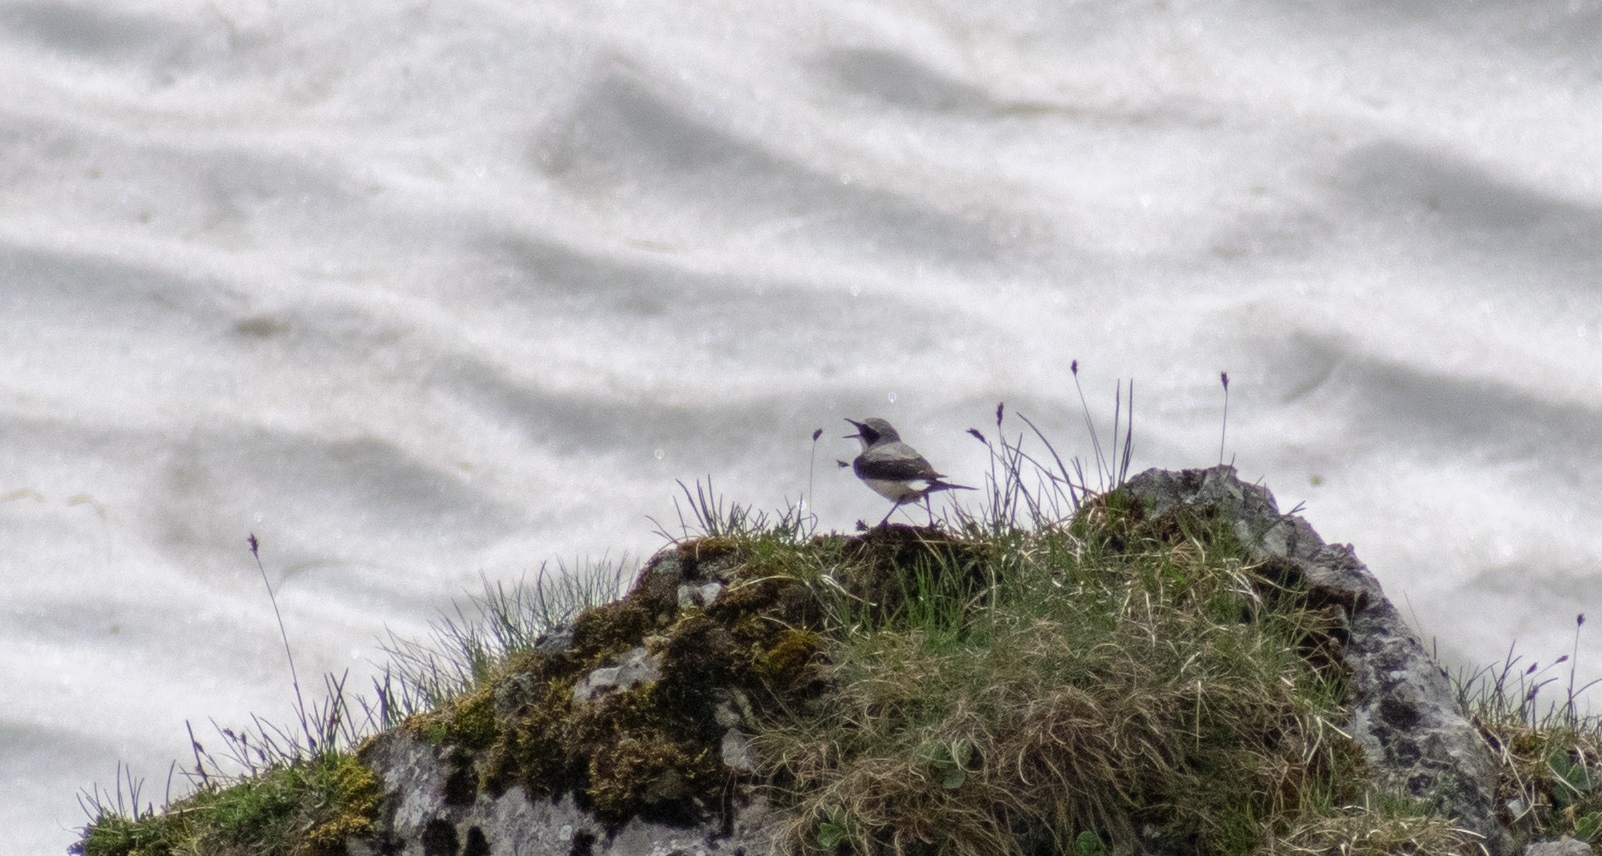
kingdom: Animalia
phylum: Chordata
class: Aves
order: Passeriformes
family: Muscicapidae
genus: Oenanthe
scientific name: Oenanthe oenanthe
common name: Northern wheatear
